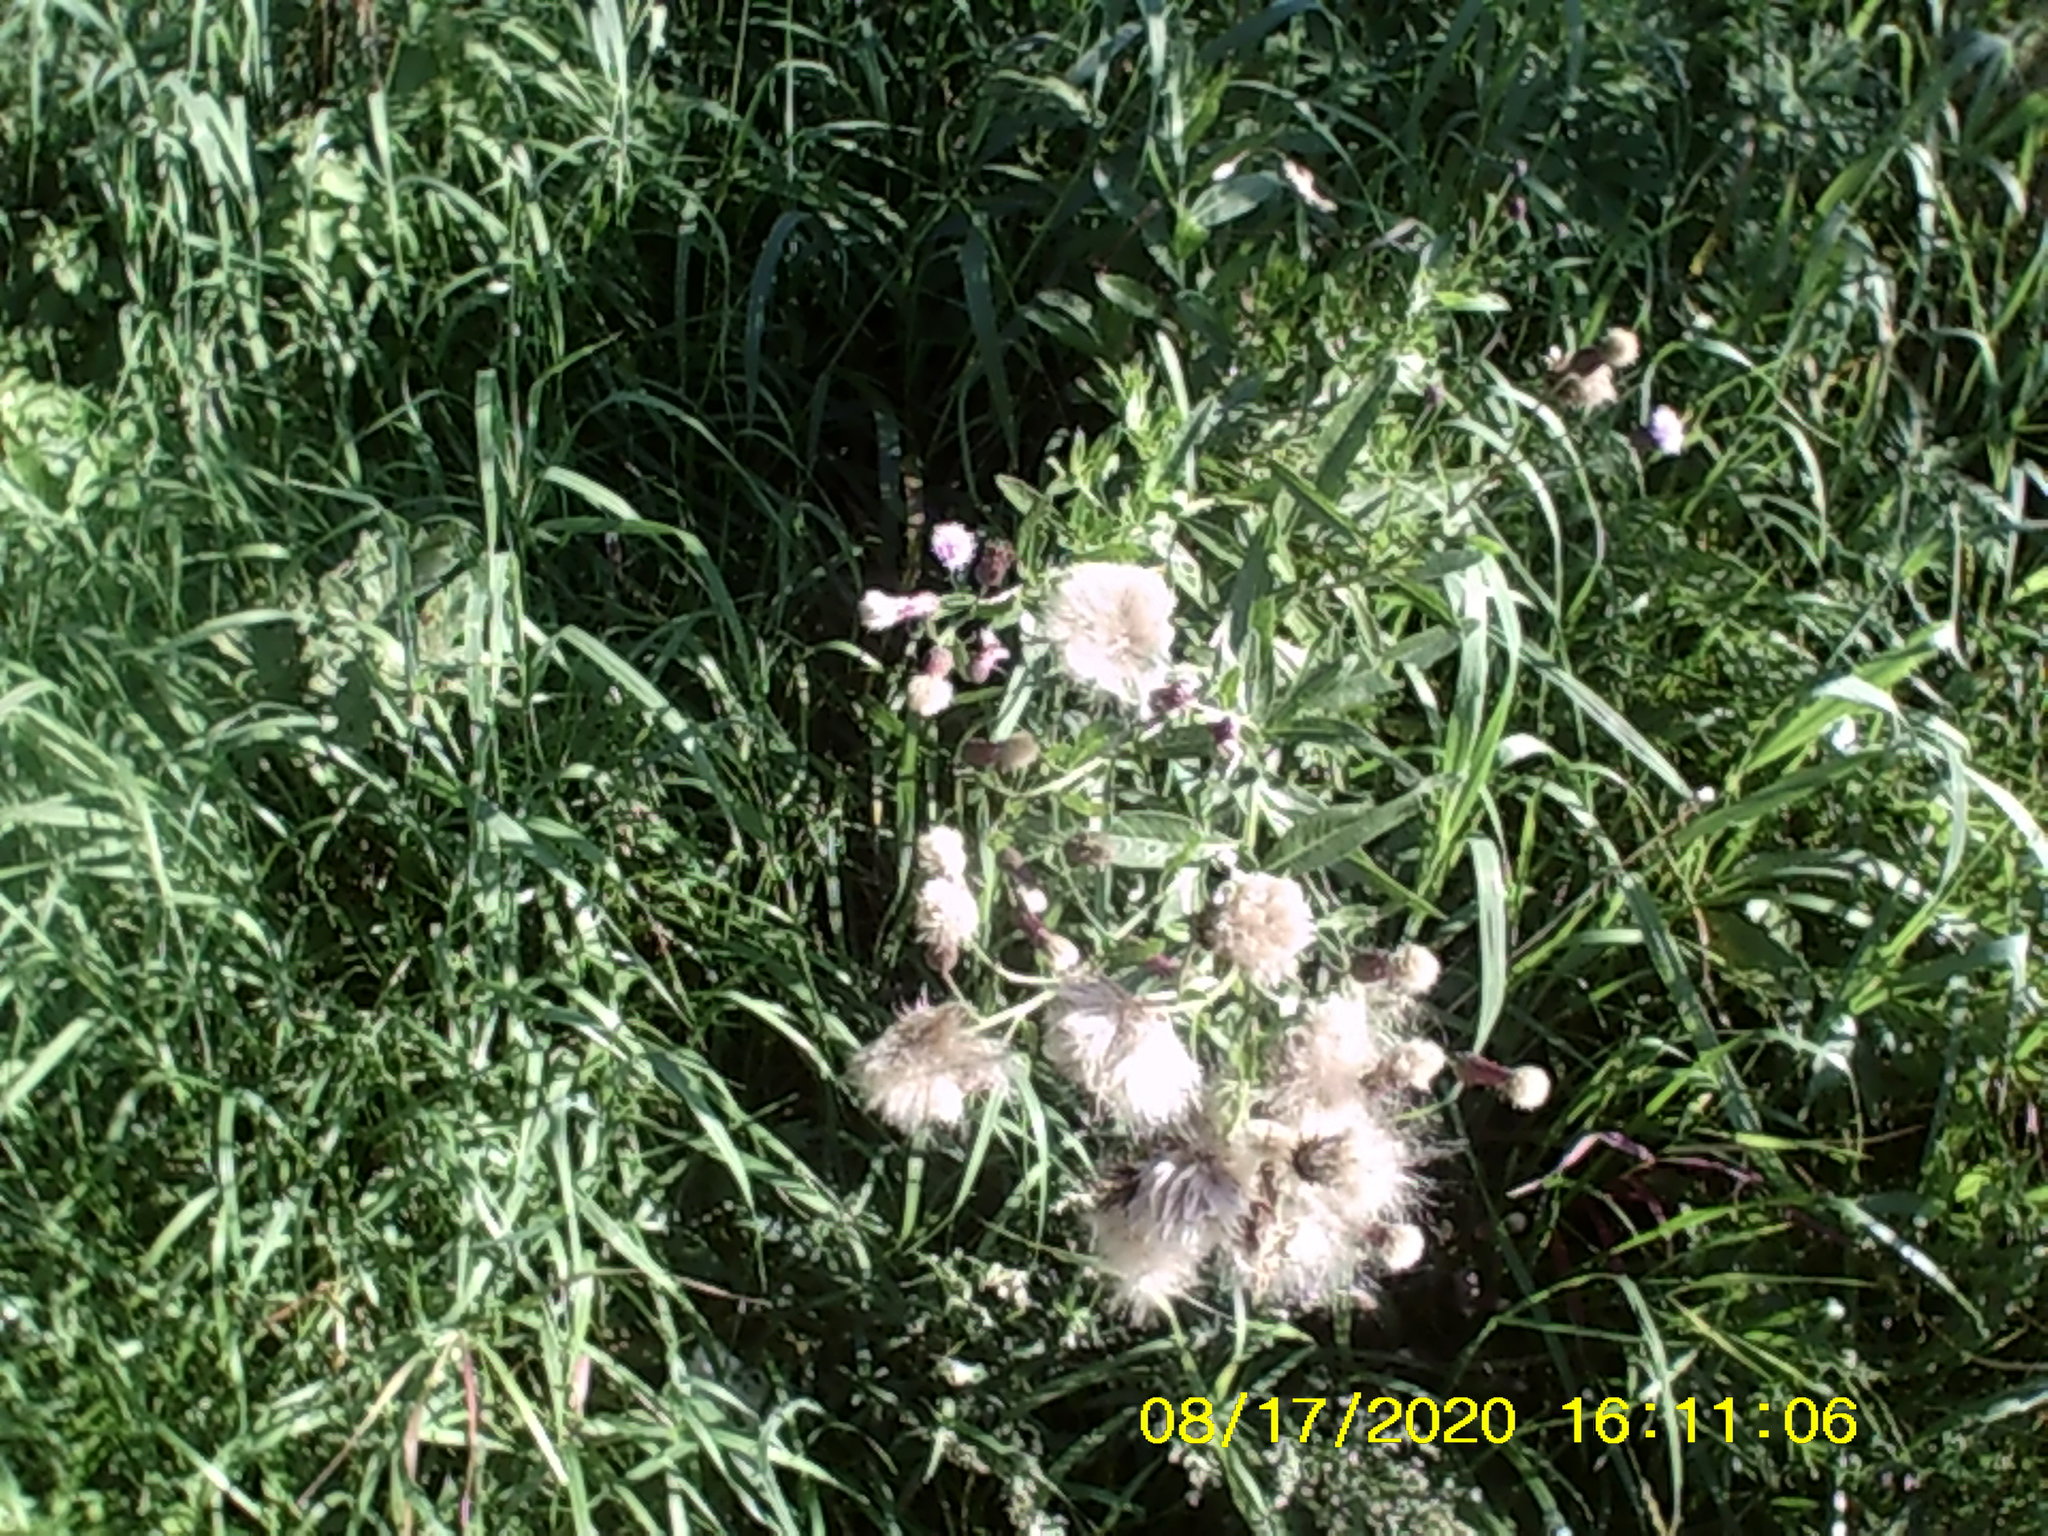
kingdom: Plantae
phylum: Tracheophyta
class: Magnoliopsida
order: Asterales
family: Asteraceae
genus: Cirsium
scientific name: Cirsium arvense
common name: Creeping thistle
